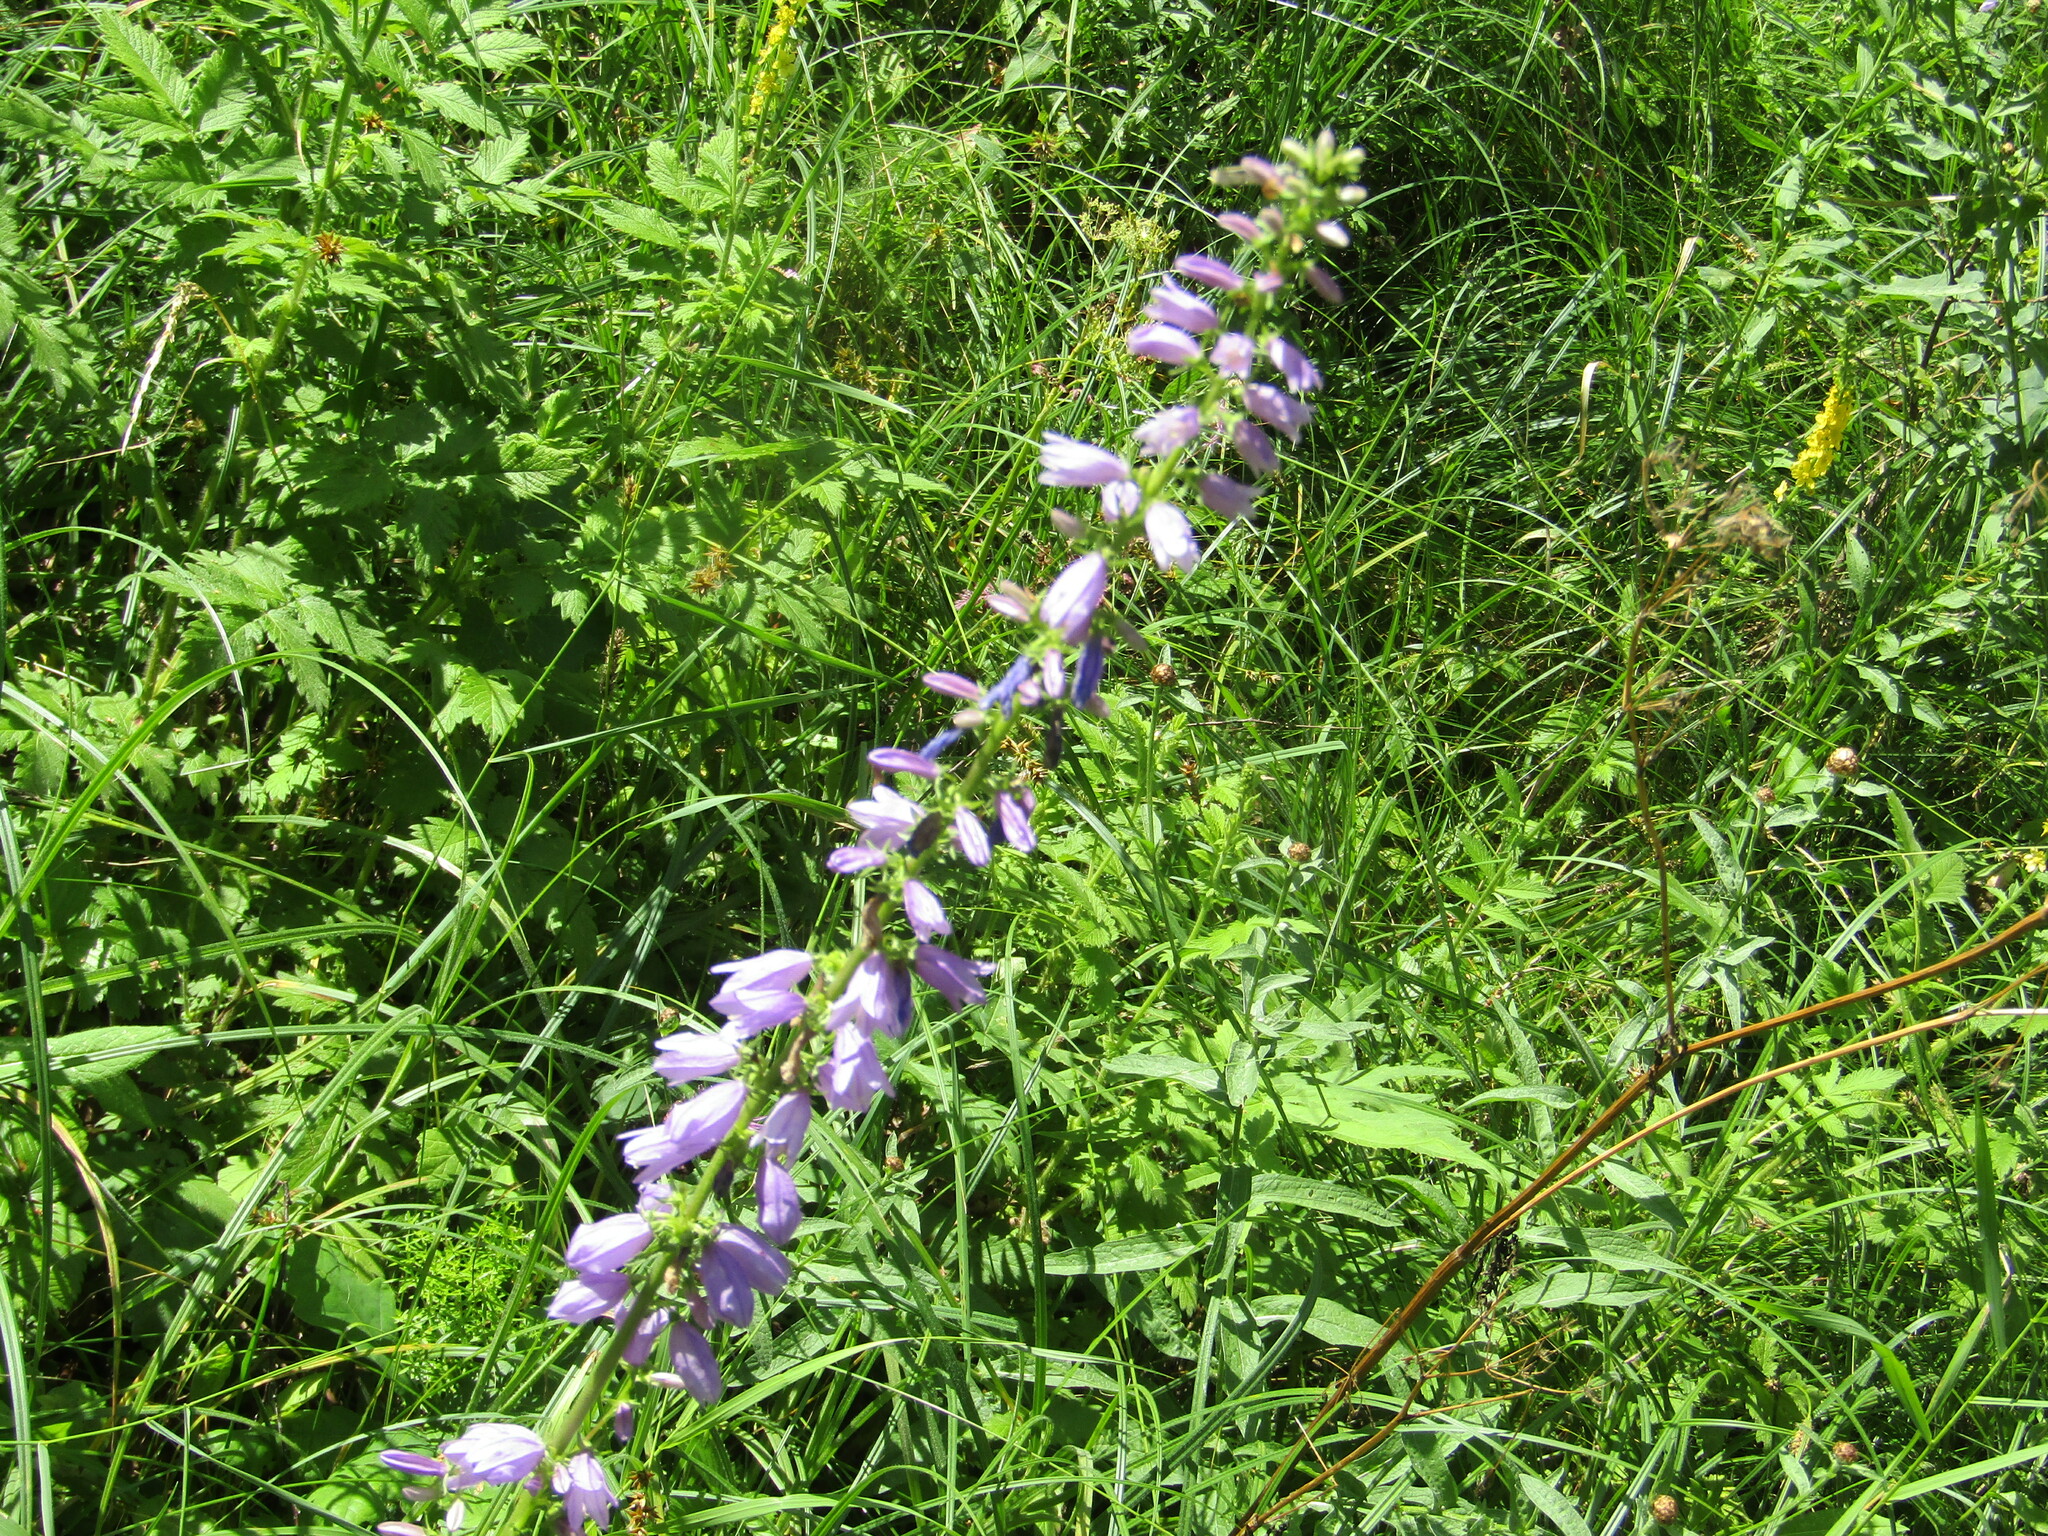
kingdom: Plantae
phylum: Tracheophyta
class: Magnoliopsida
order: Asterales
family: Campanulaceae
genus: Campanula
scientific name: Campanula bononiensis
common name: Pale bellflower
